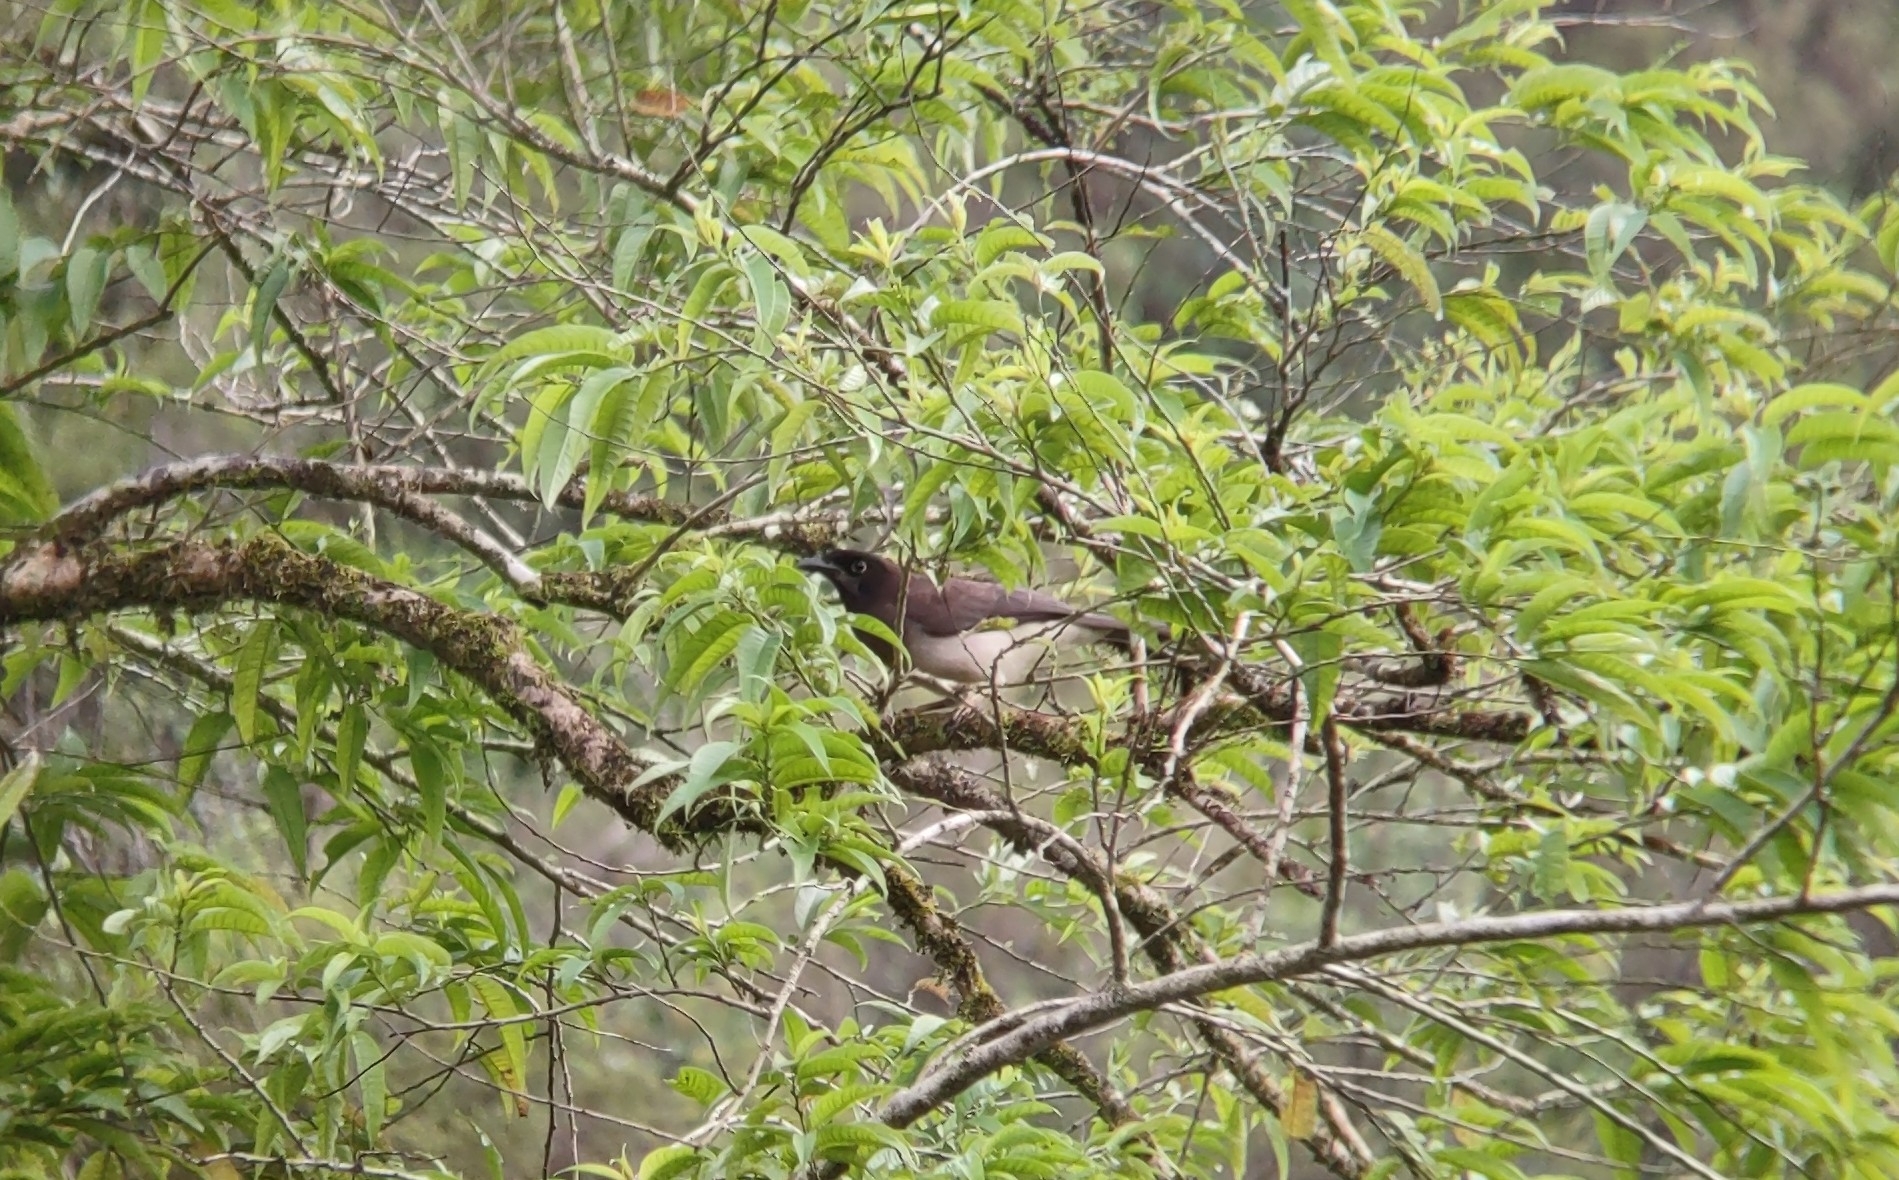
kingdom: Animalia
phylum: Chordata
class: Aves
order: Passeriformes
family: Corvidae
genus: Psilorhinus
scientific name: Psilorhinus morio
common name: Brown jay
